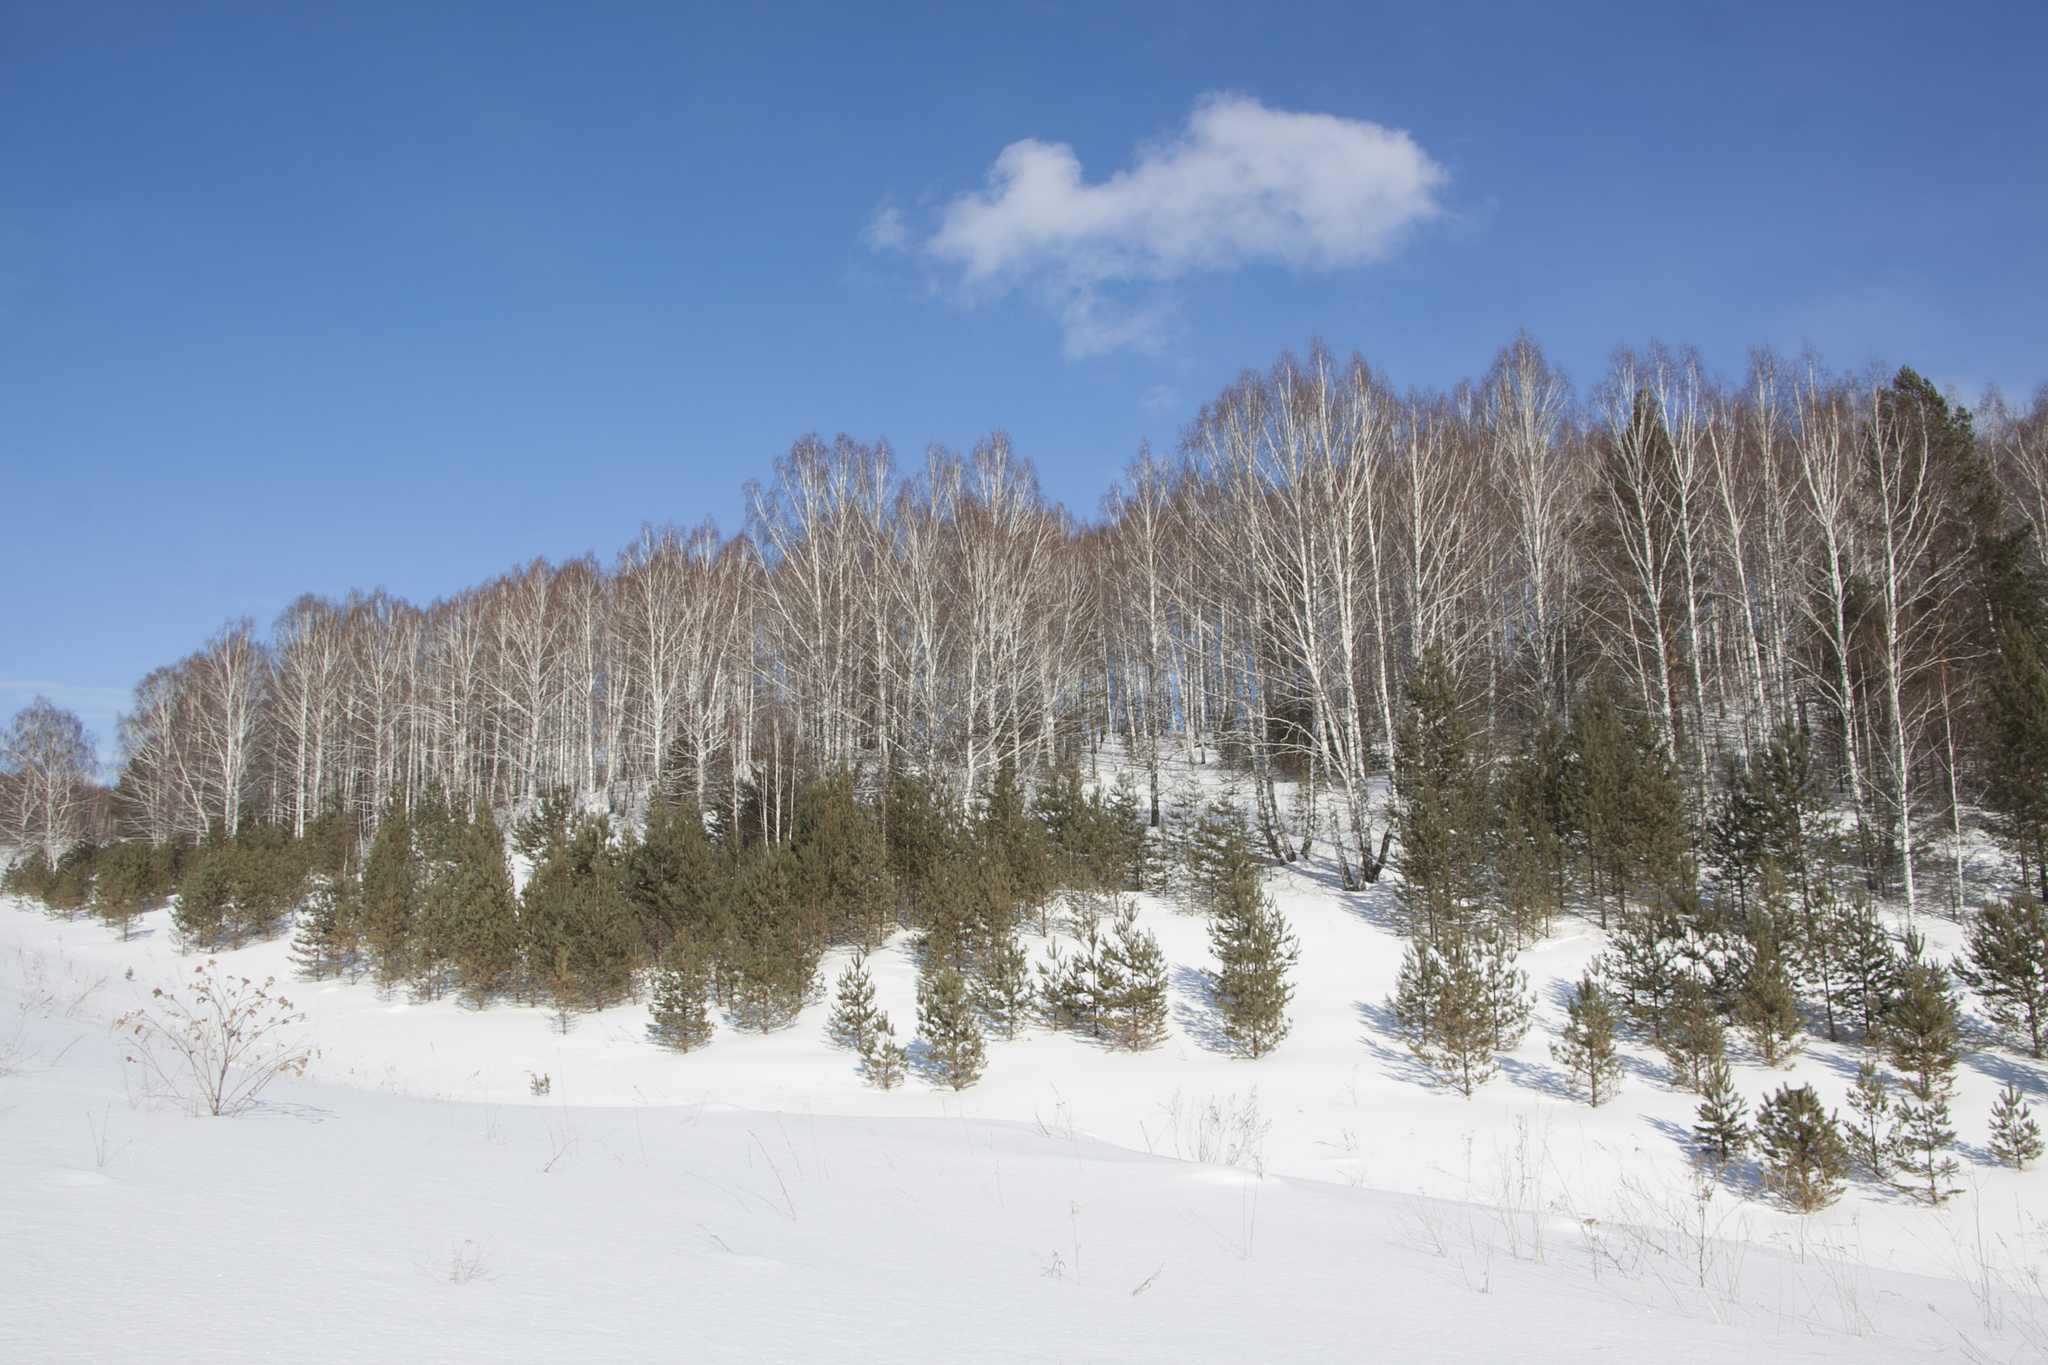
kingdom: Plantae
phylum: Tracheophyta
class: Pinopsida
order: Pinales
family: Pinaceae
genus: Pinus
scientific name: Pinus sylvestris
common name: Scots pine
